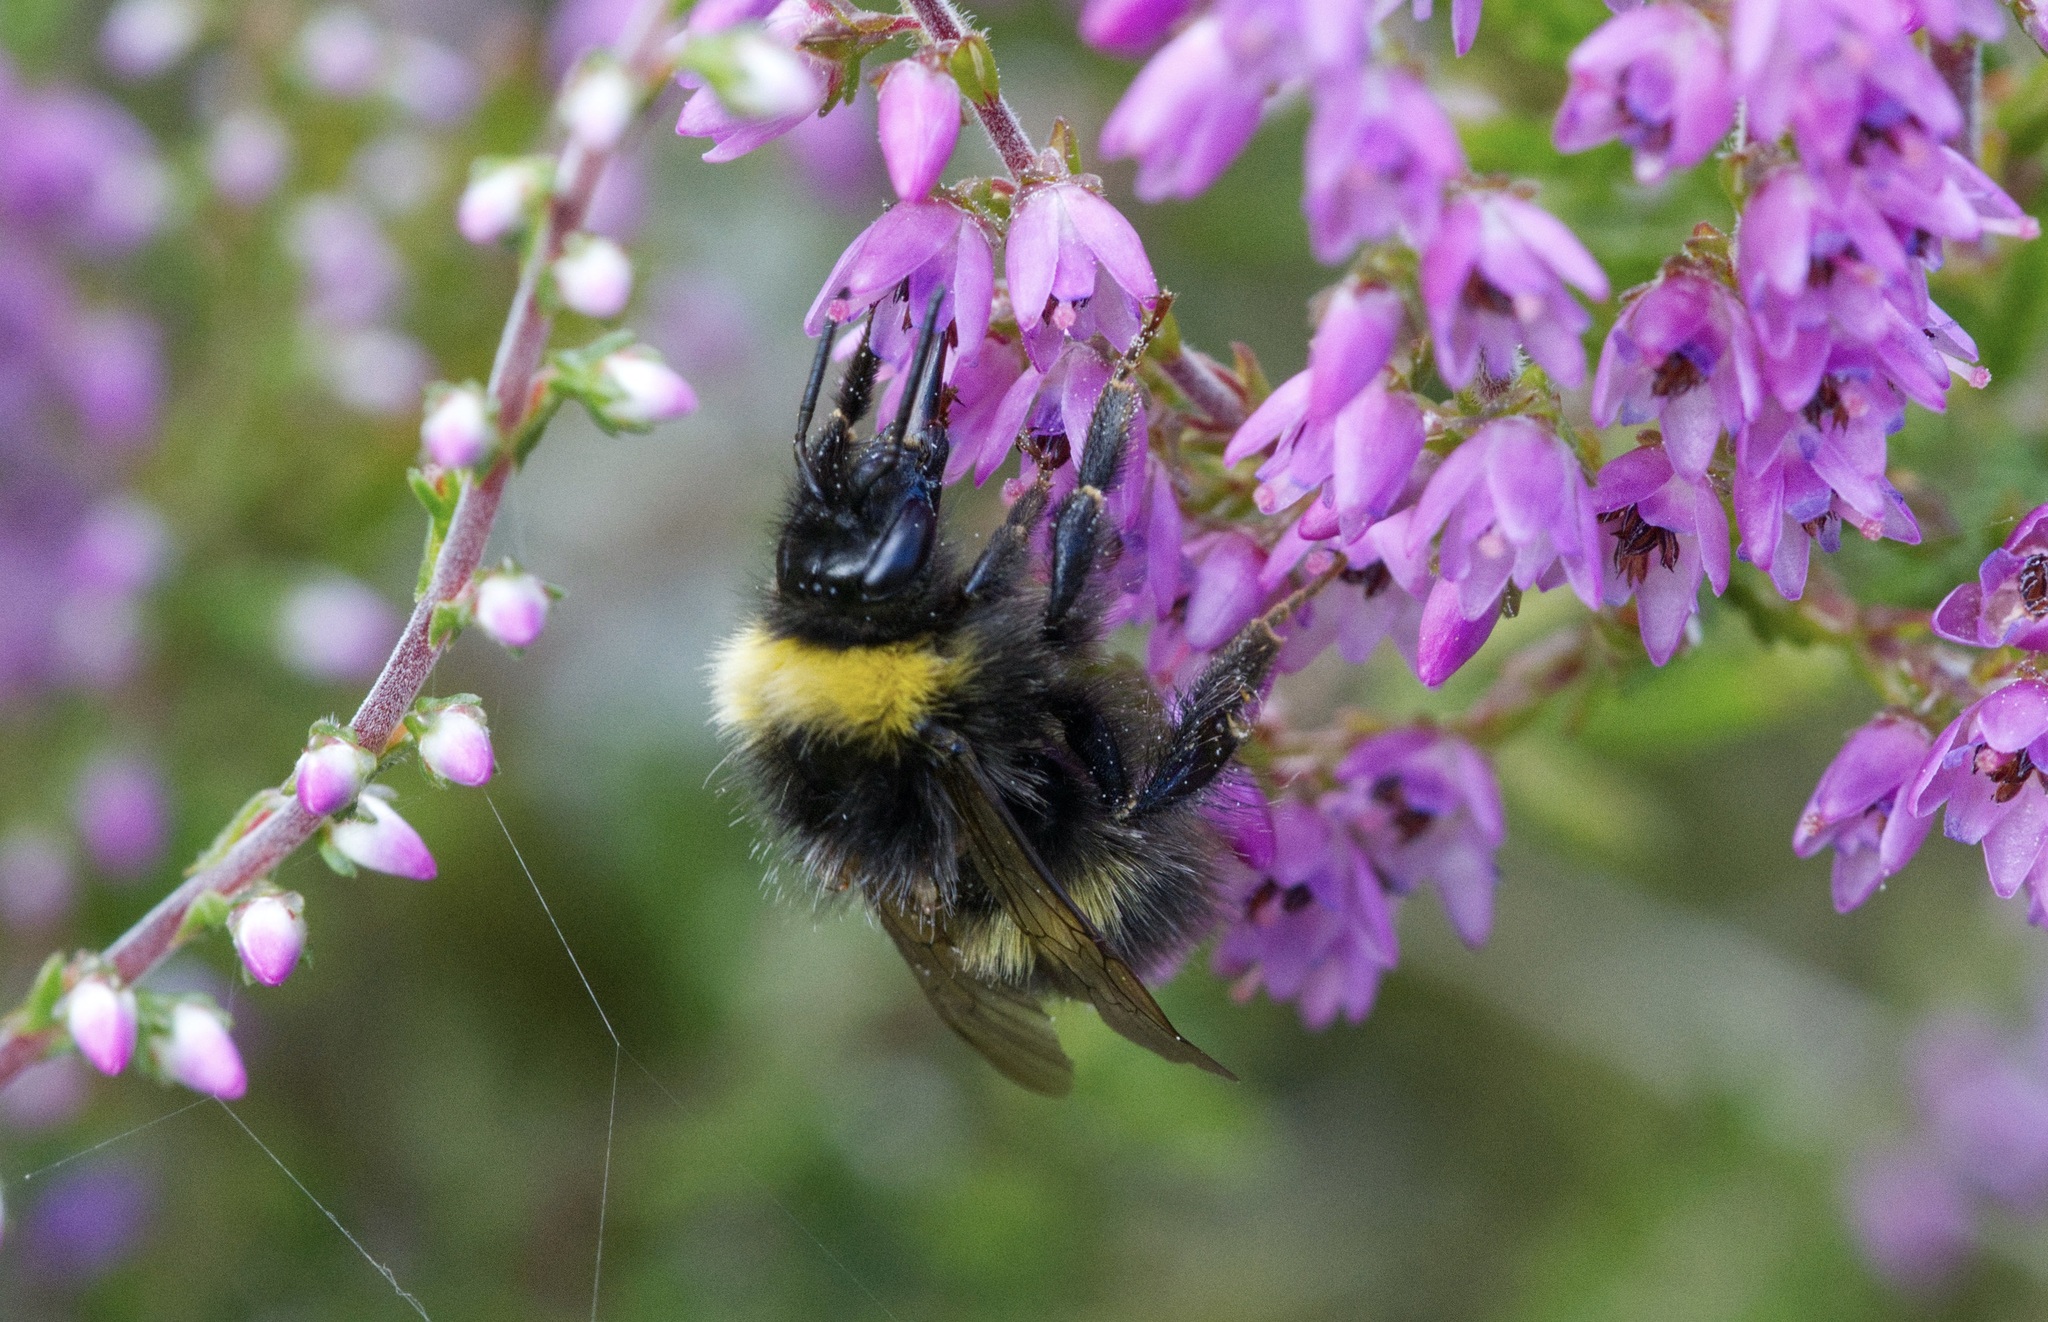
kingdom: Animalia
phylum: Arthropoda
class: Insecta
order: Hymenoptera
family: Apidae
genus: Bombus
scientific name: Bombus pratorum
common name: Early humble-bee
